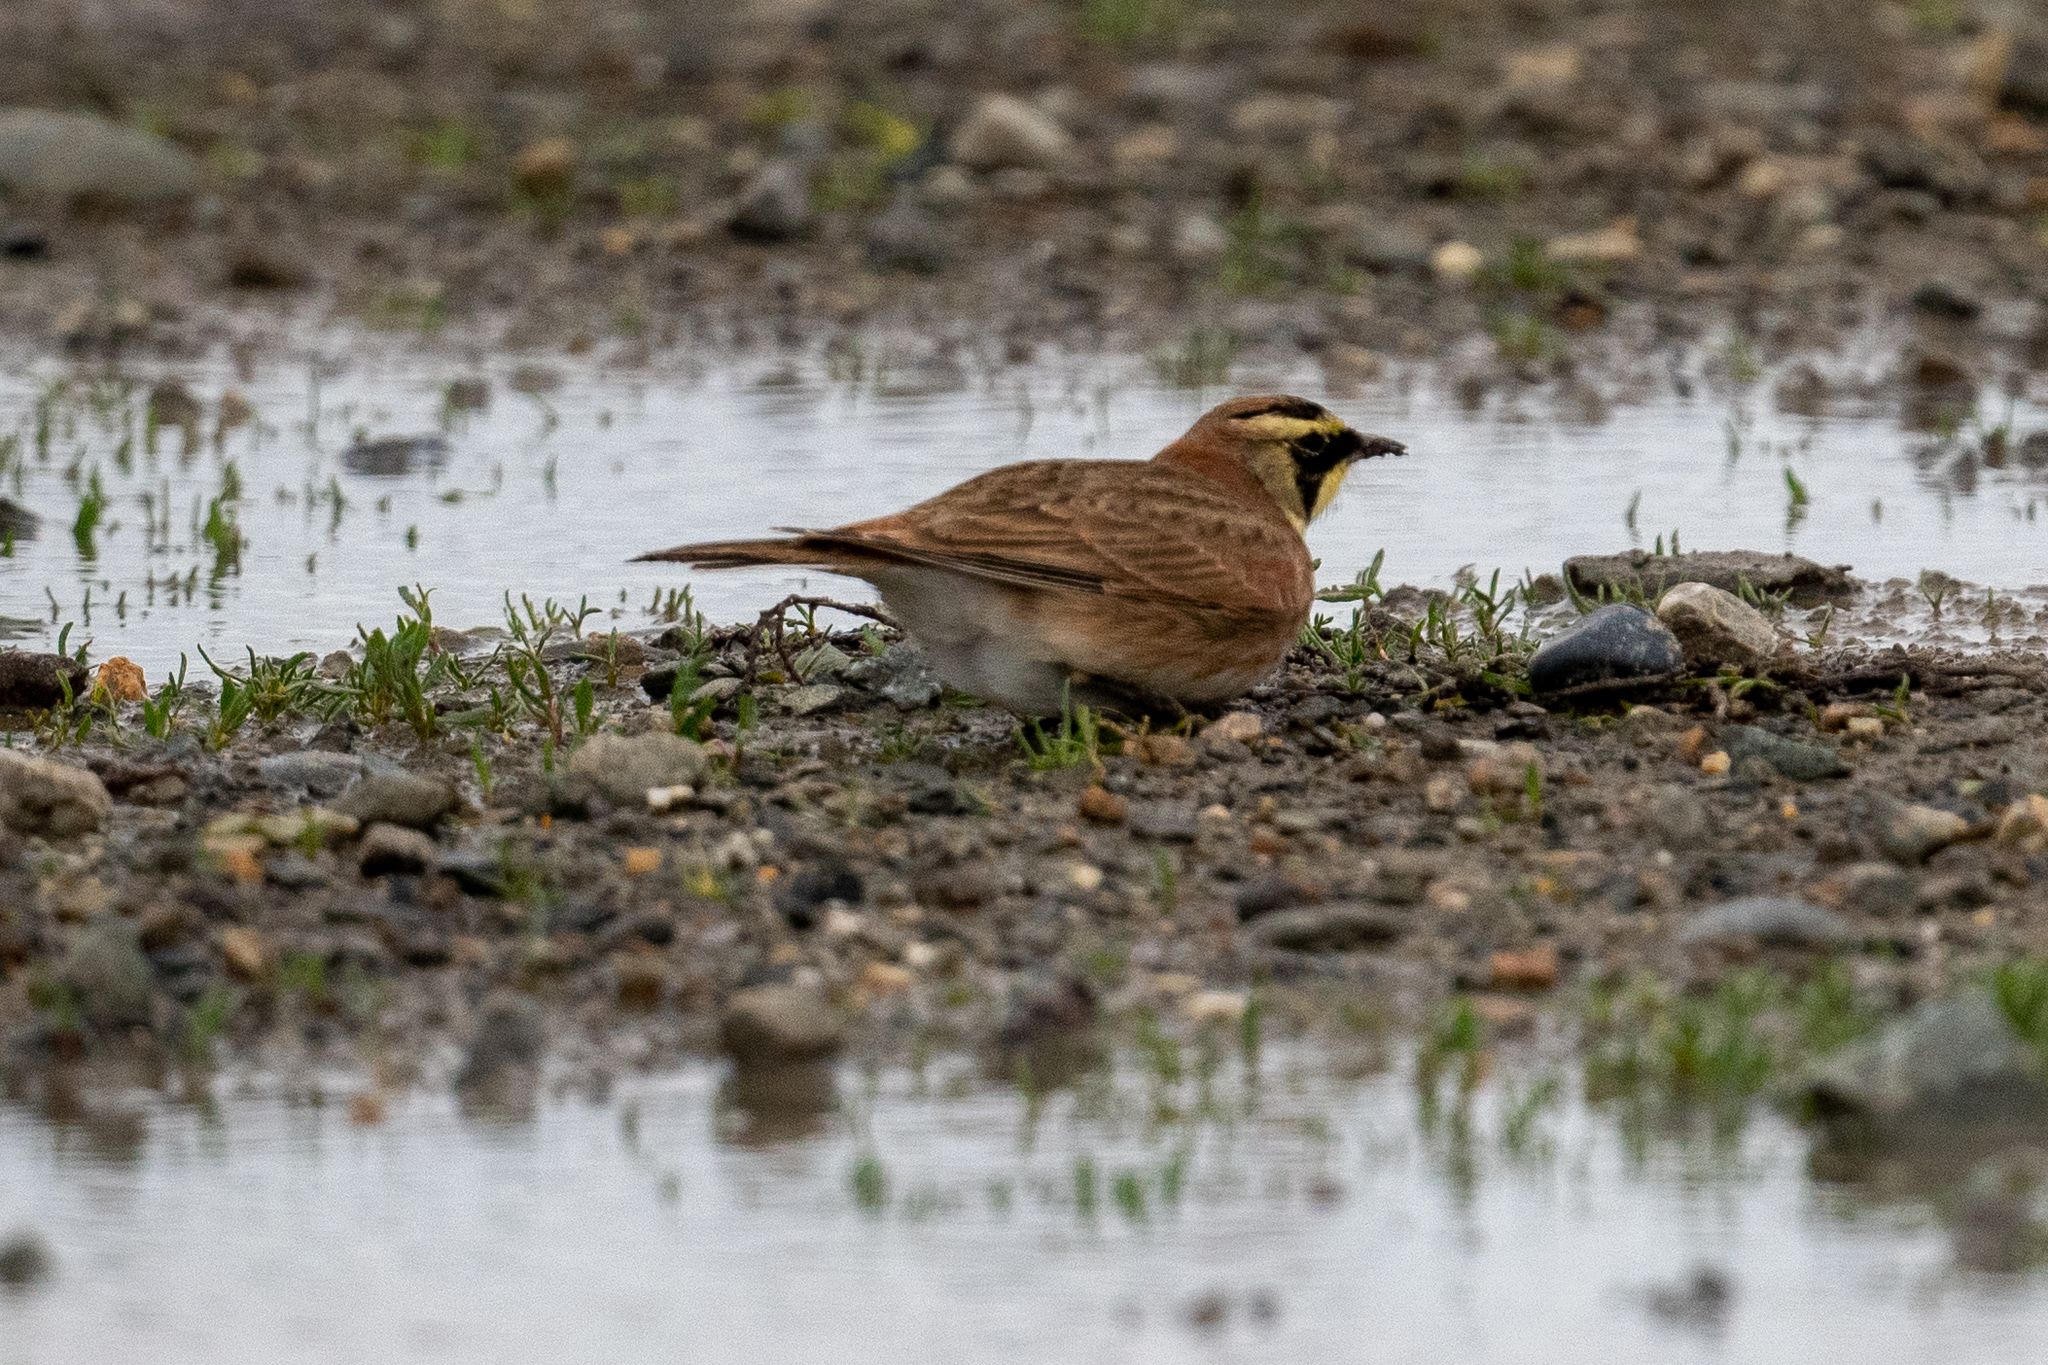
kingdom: Animalia
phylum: Chordata
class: Aves
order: Passeriformes
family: Alaudidae
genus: Eremophila
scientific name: Eremophila alpestris
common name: Horned lark
